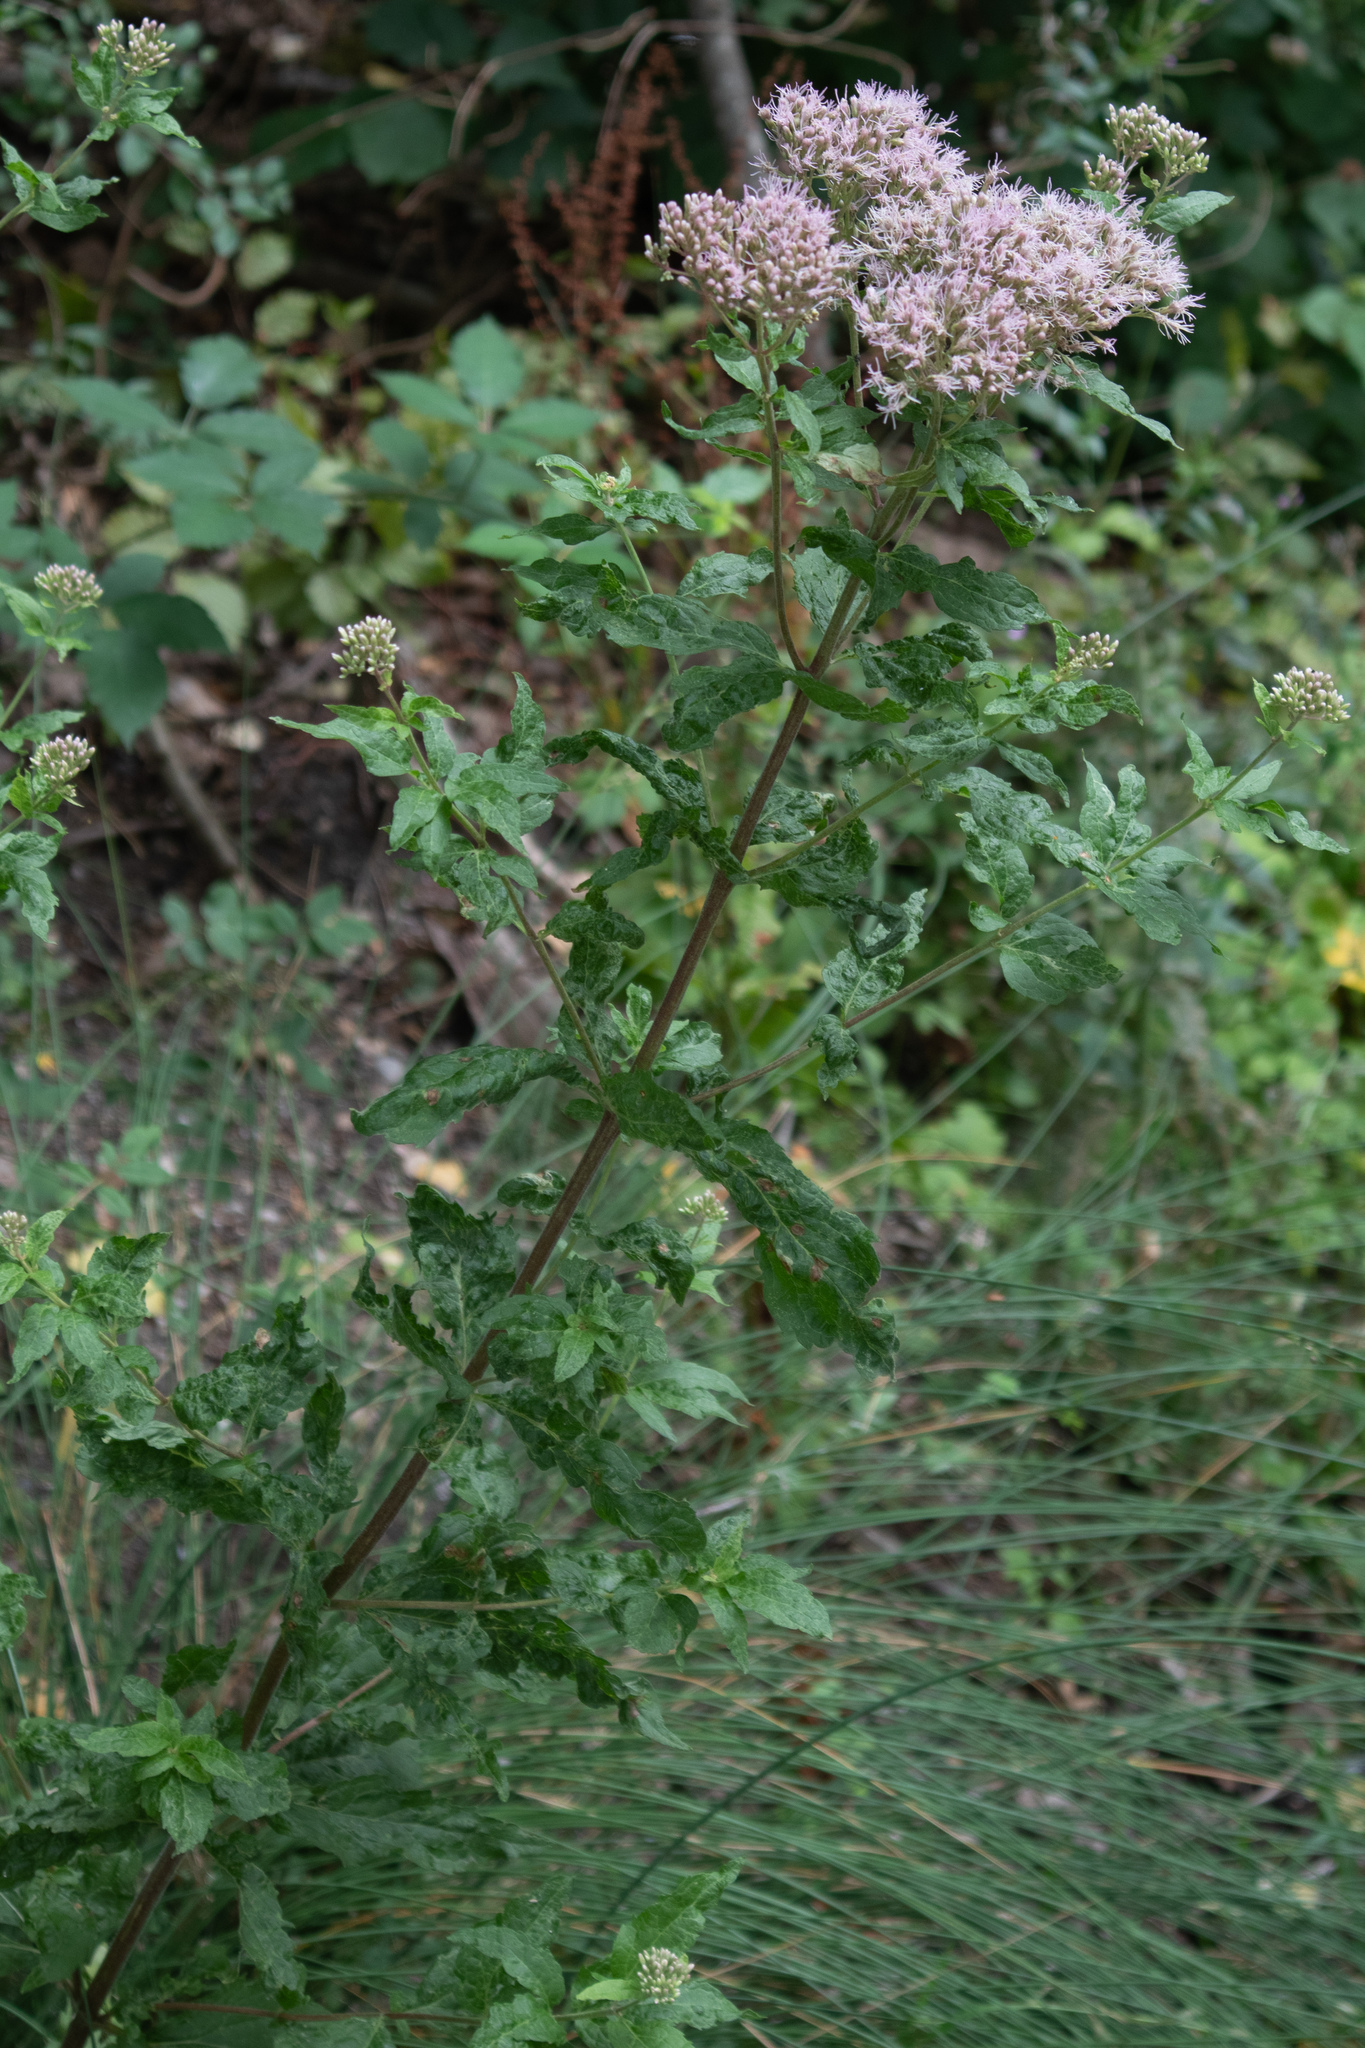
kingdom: Plantae
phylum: Tracheophyta
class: Magnoliopsida
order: Asterales
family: Asteraceae
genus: Eupatorium
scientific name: Eupatorium cannabinum
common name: Hemp-agrimony
